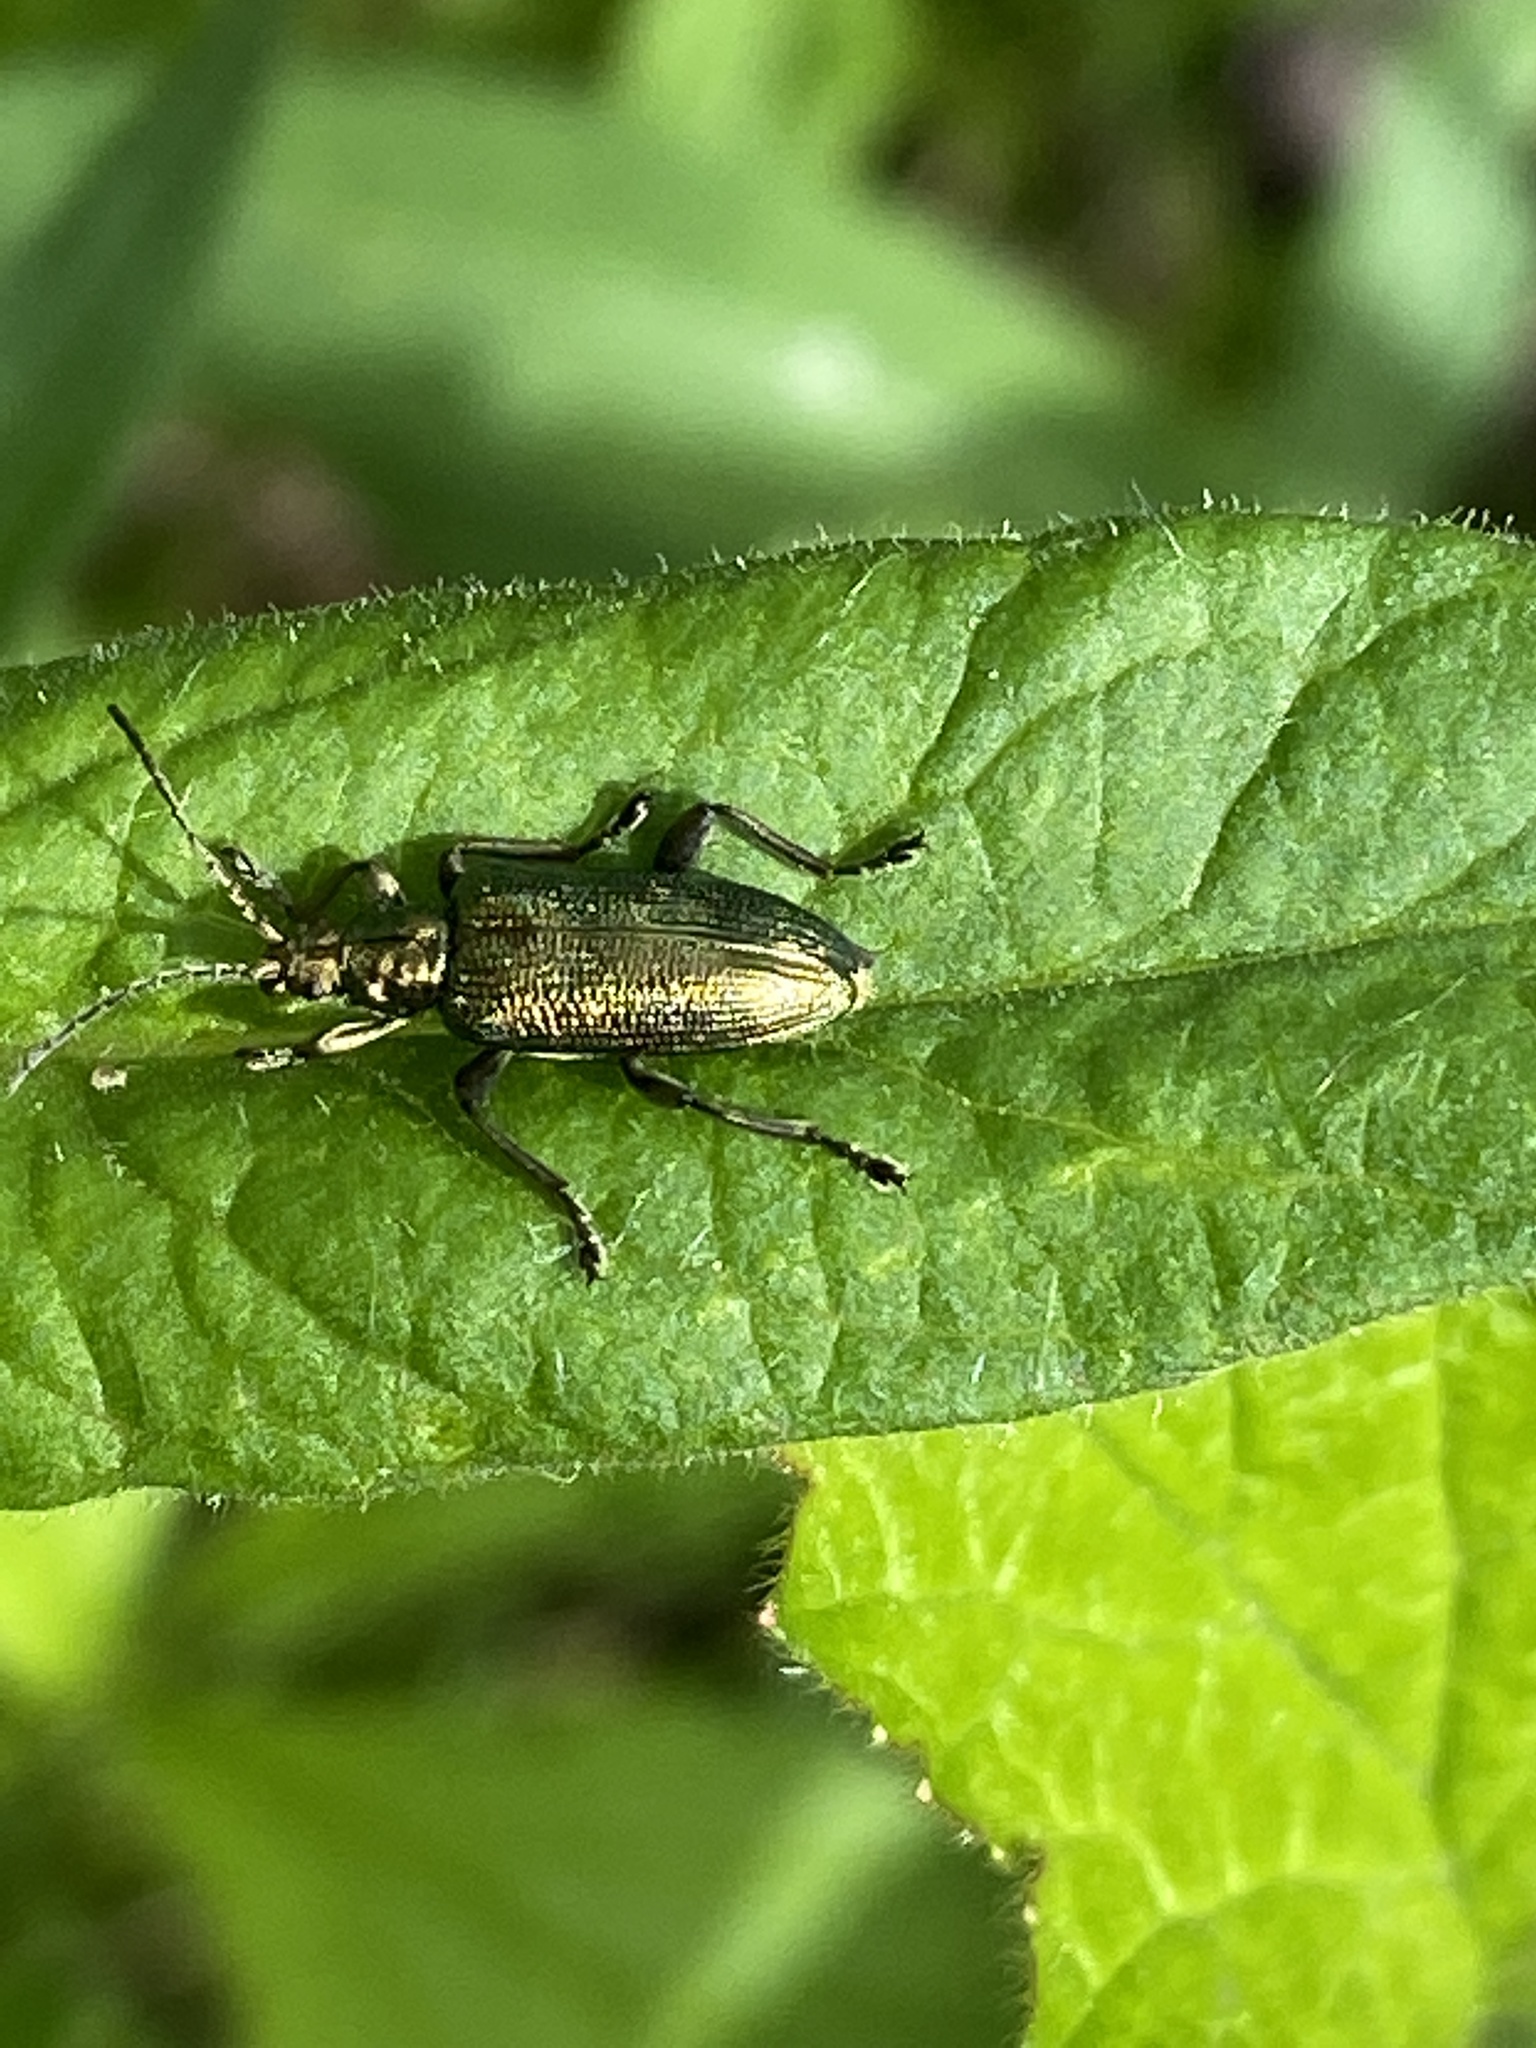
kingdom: Animalia
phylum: Arthropoda
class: Insecta
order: Coleoptera
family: Chrysomelidae
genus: Plateumaris
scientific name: Plateumaris sericea
